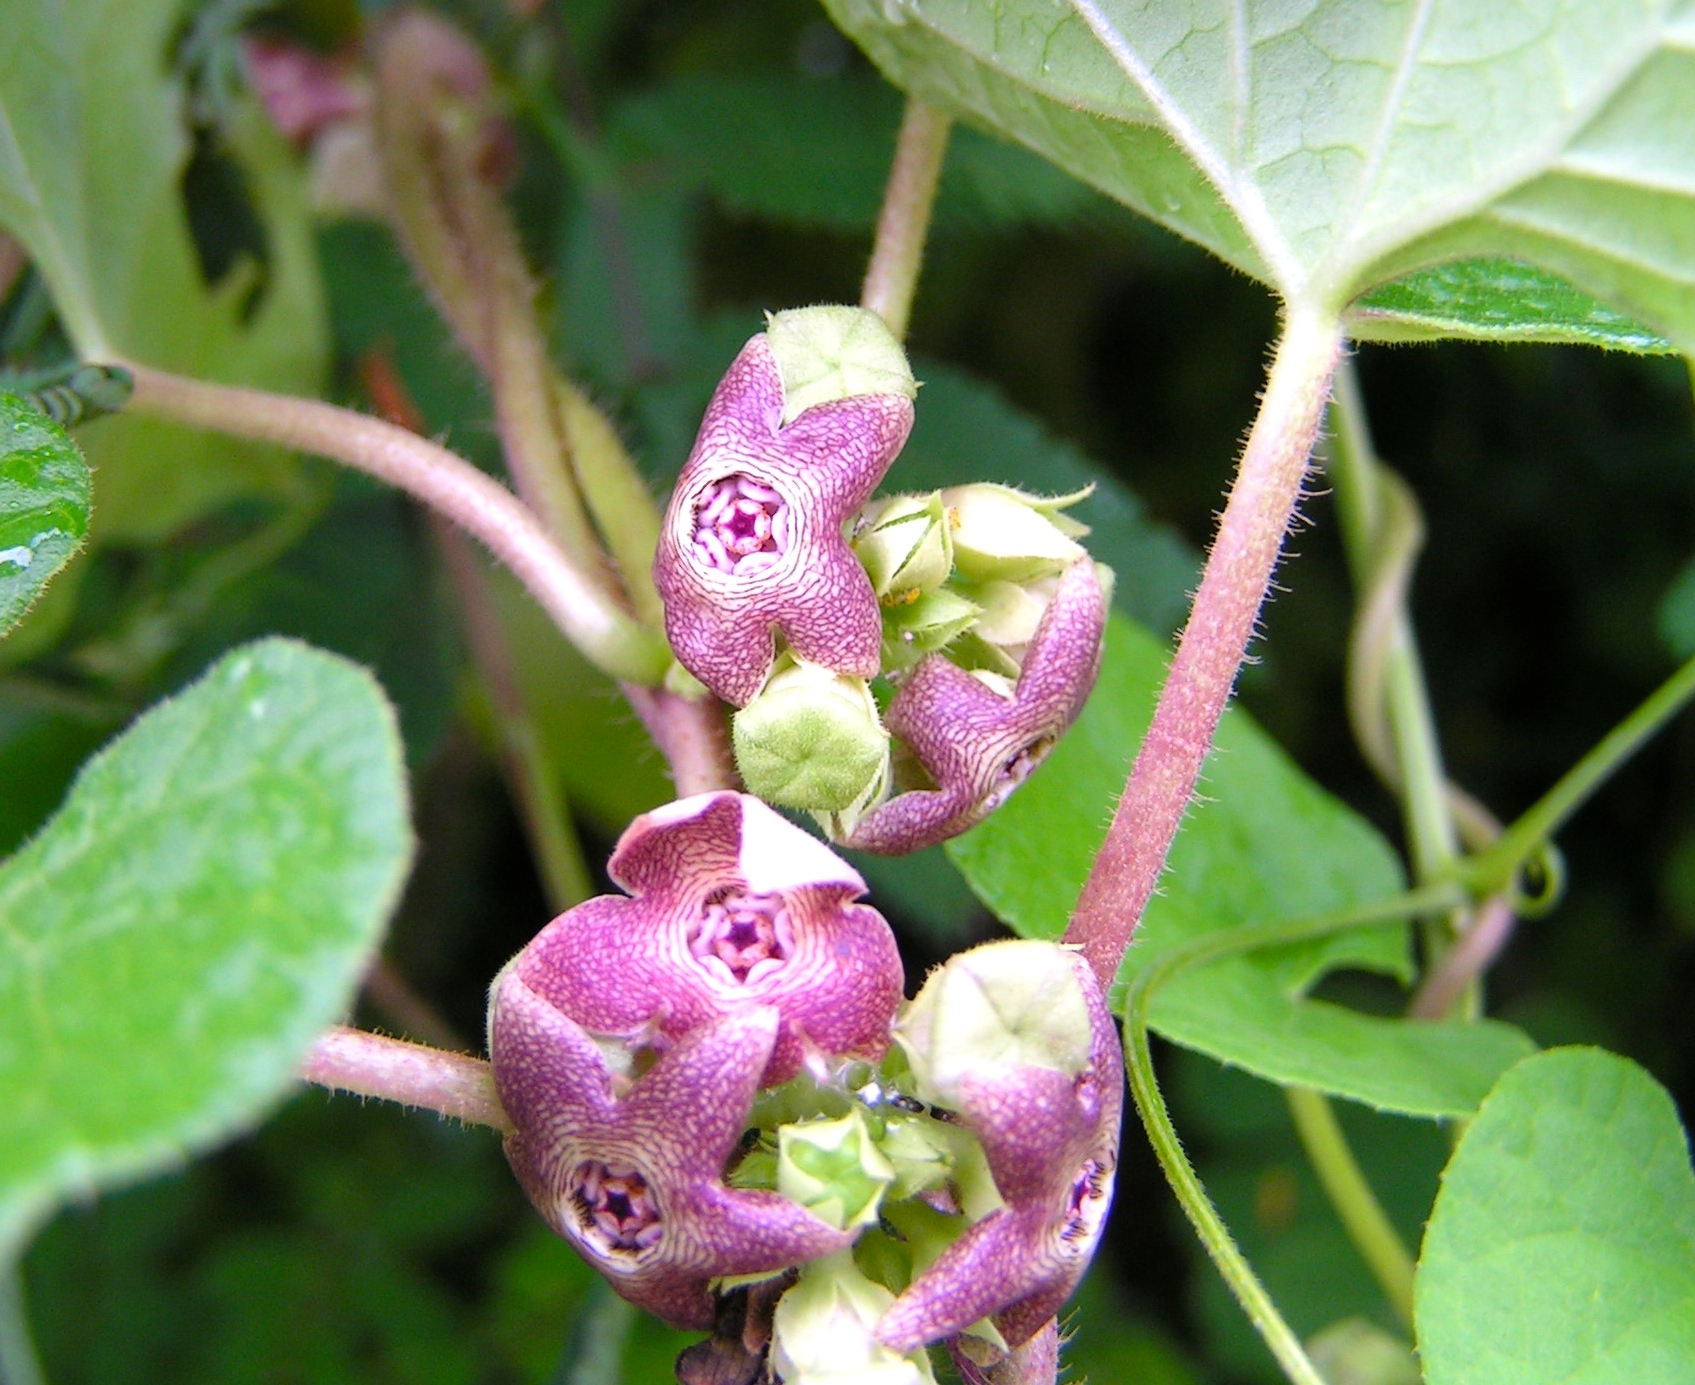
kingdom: Plantae
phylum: Tracheophyta
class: Magnoliopsida
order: Gentianales
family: Apocynaceae
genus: Dictyanthus
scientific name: Dictyanthus sepicola
